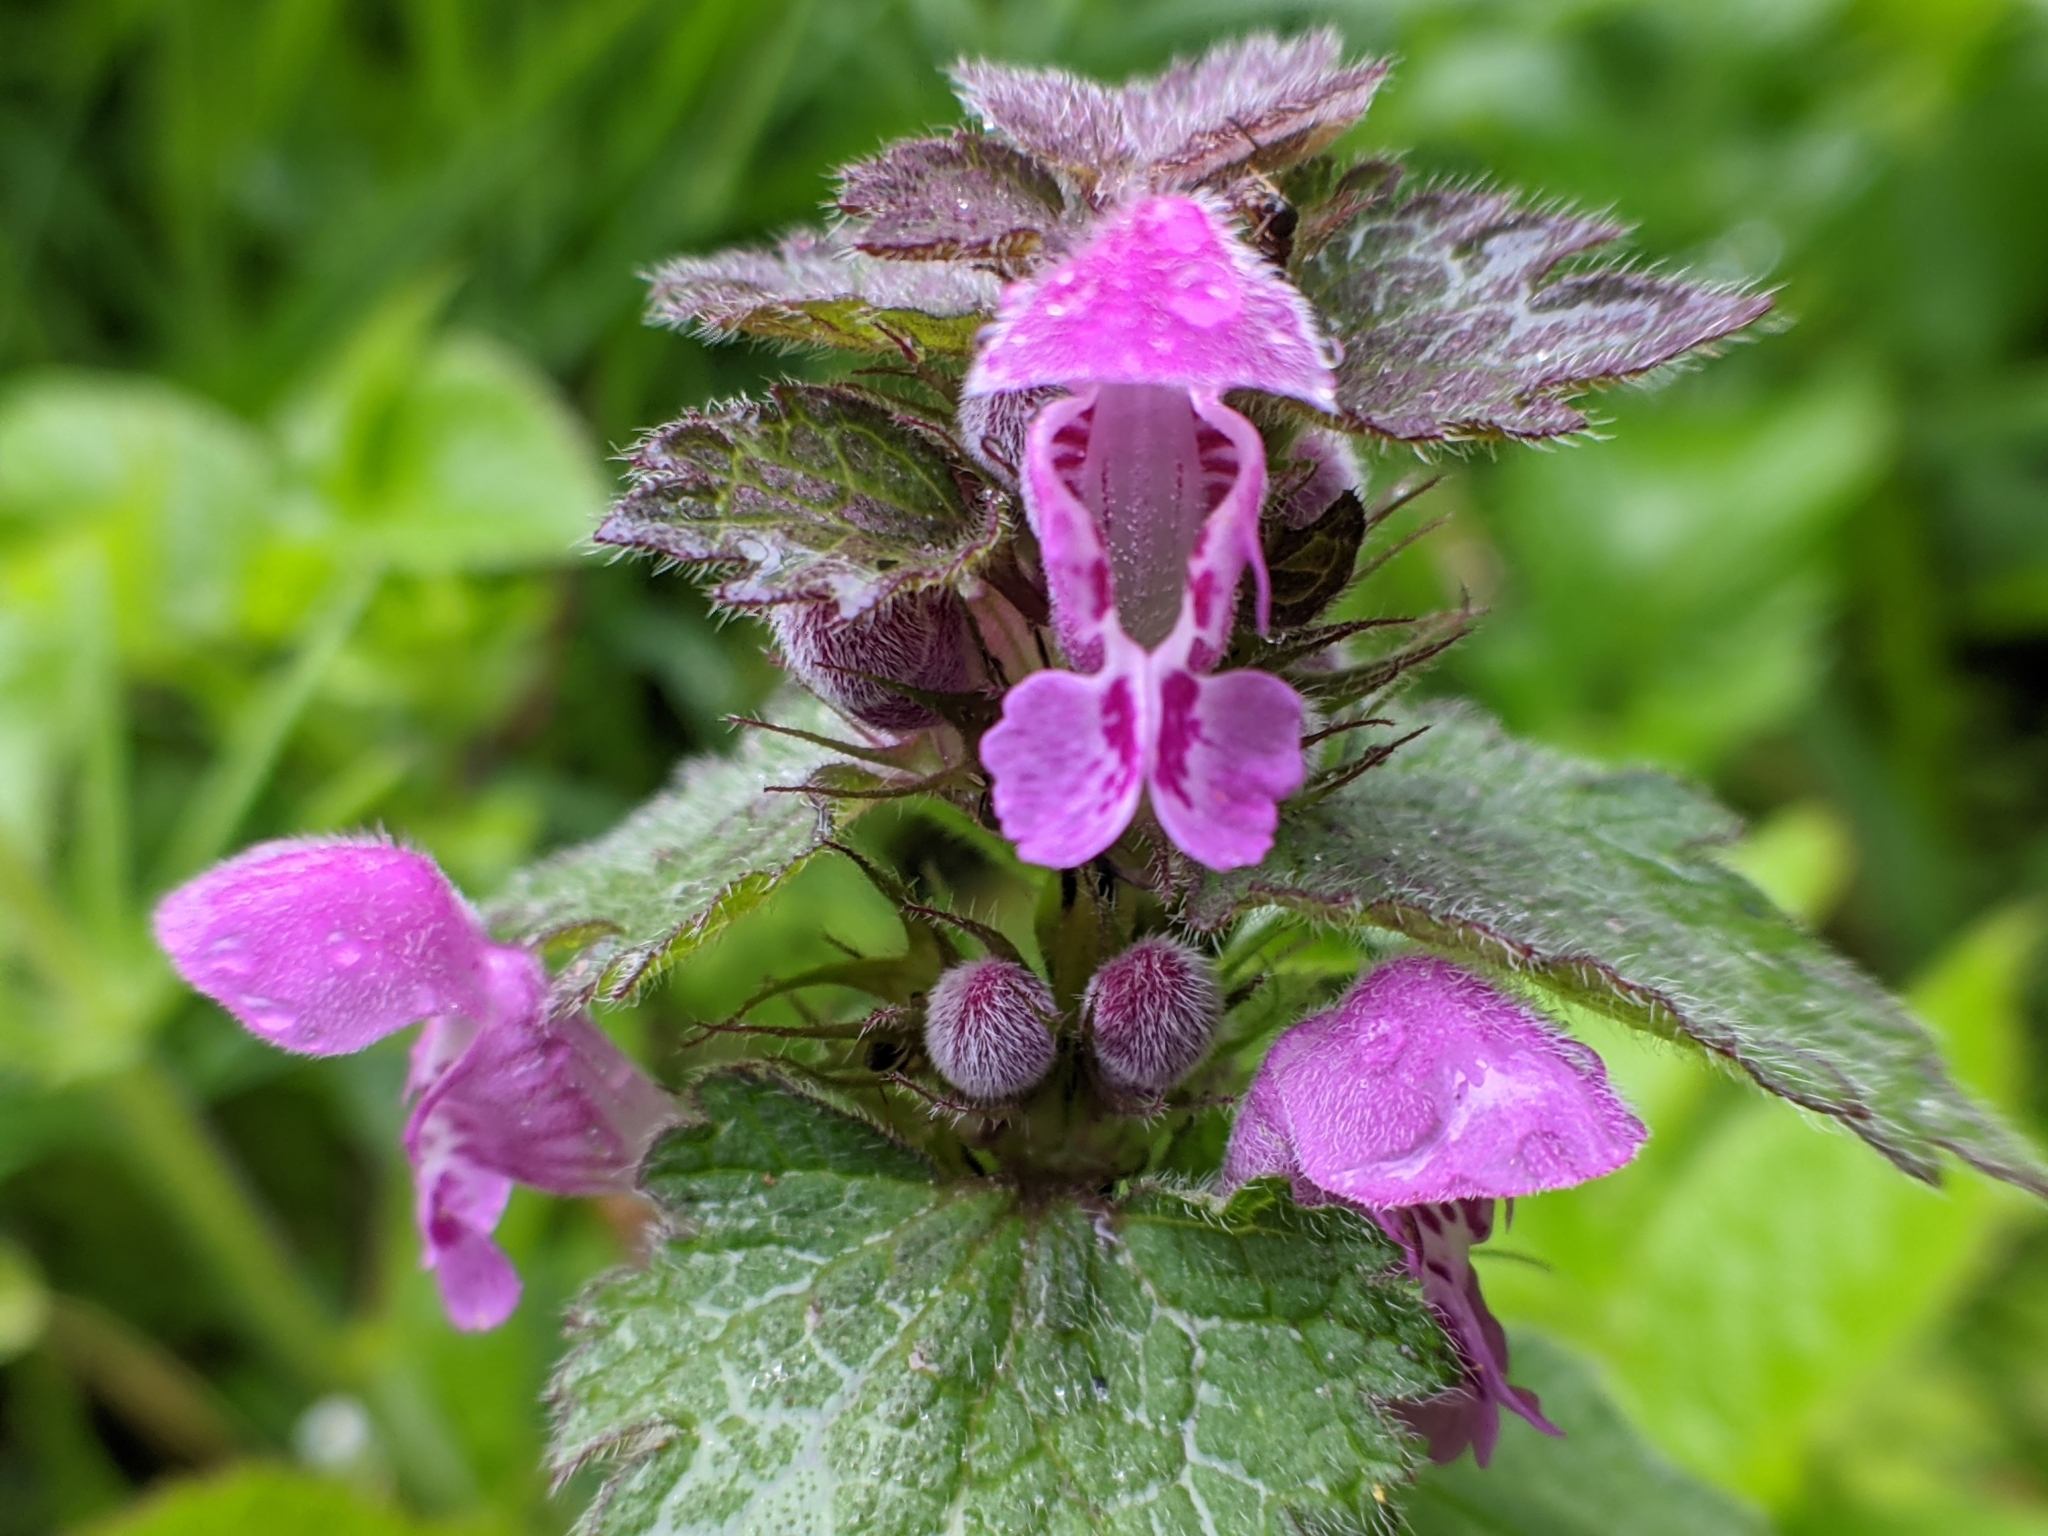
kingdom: Plantae
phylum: Tracheophyta
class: Magnoliopsida
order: Lamiales
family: Lamiaceae
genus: Lamium
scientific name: Lamium purpureum
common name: Red dead-nettle
